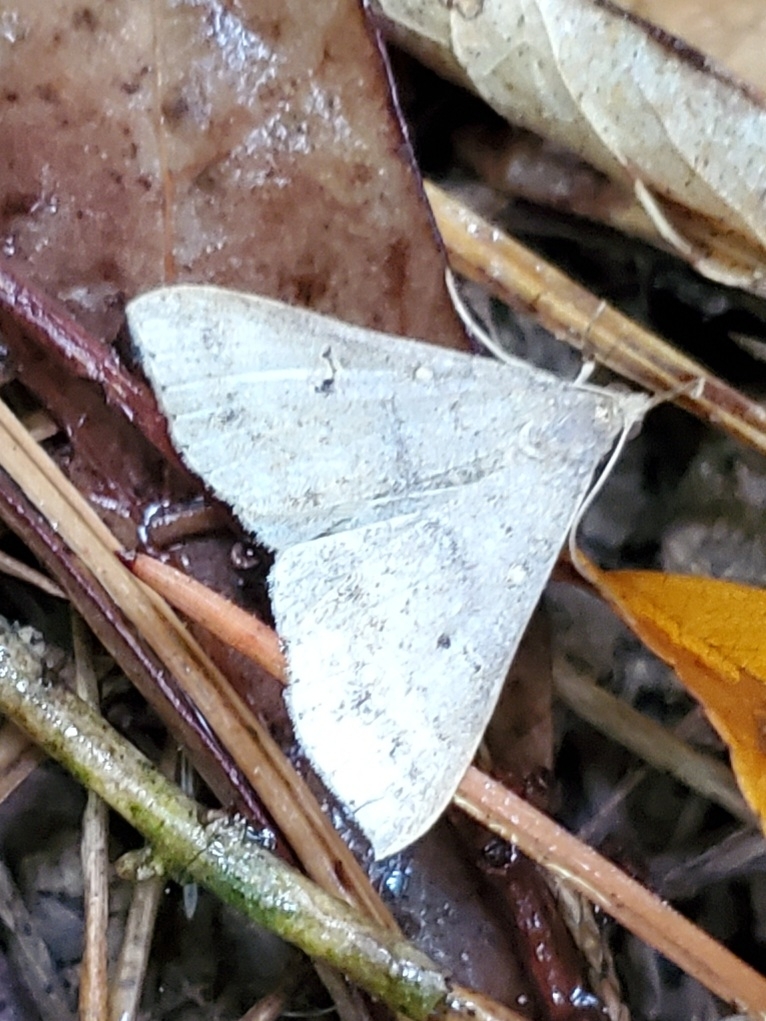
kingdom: Animalia
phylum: Arthropoda
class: Insecta
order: Lepidoptera
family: Erebidae
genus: Renia
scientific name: Renia adspergillus
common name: Speckled renia moth
